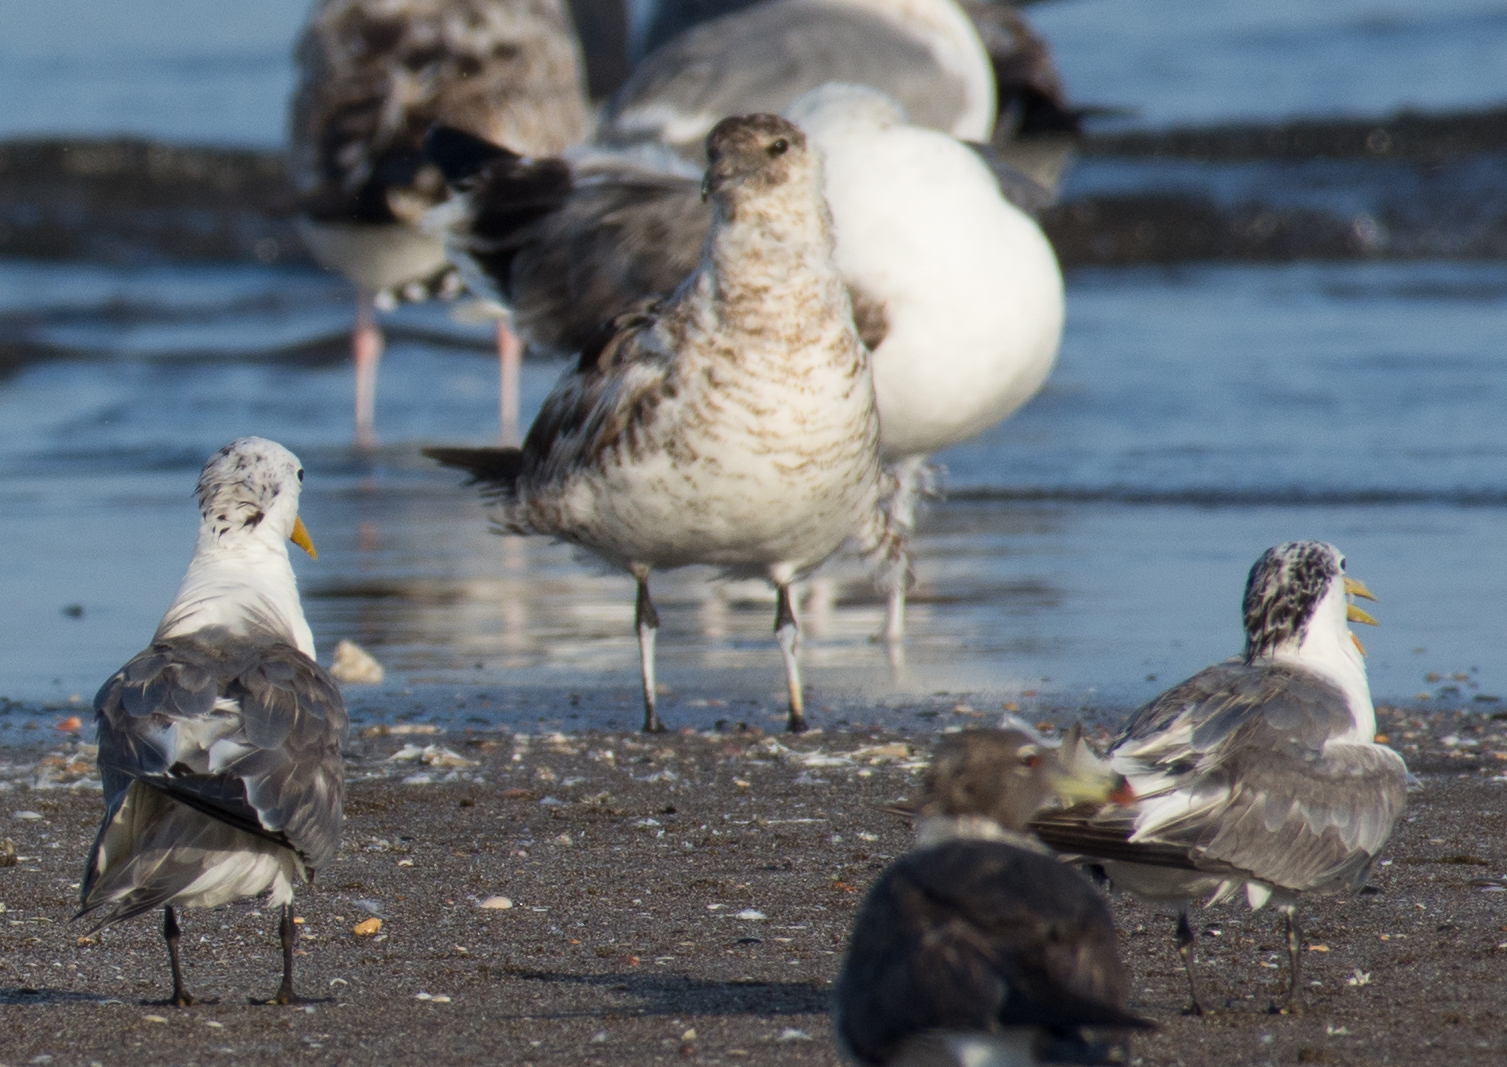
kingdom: Animalia
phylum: Chordata
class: Aves
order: Charadriiformes
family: Stercorariidae
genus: Stercorarius
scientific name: Stercorarius pomarinus
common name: Pomarine jaeger
